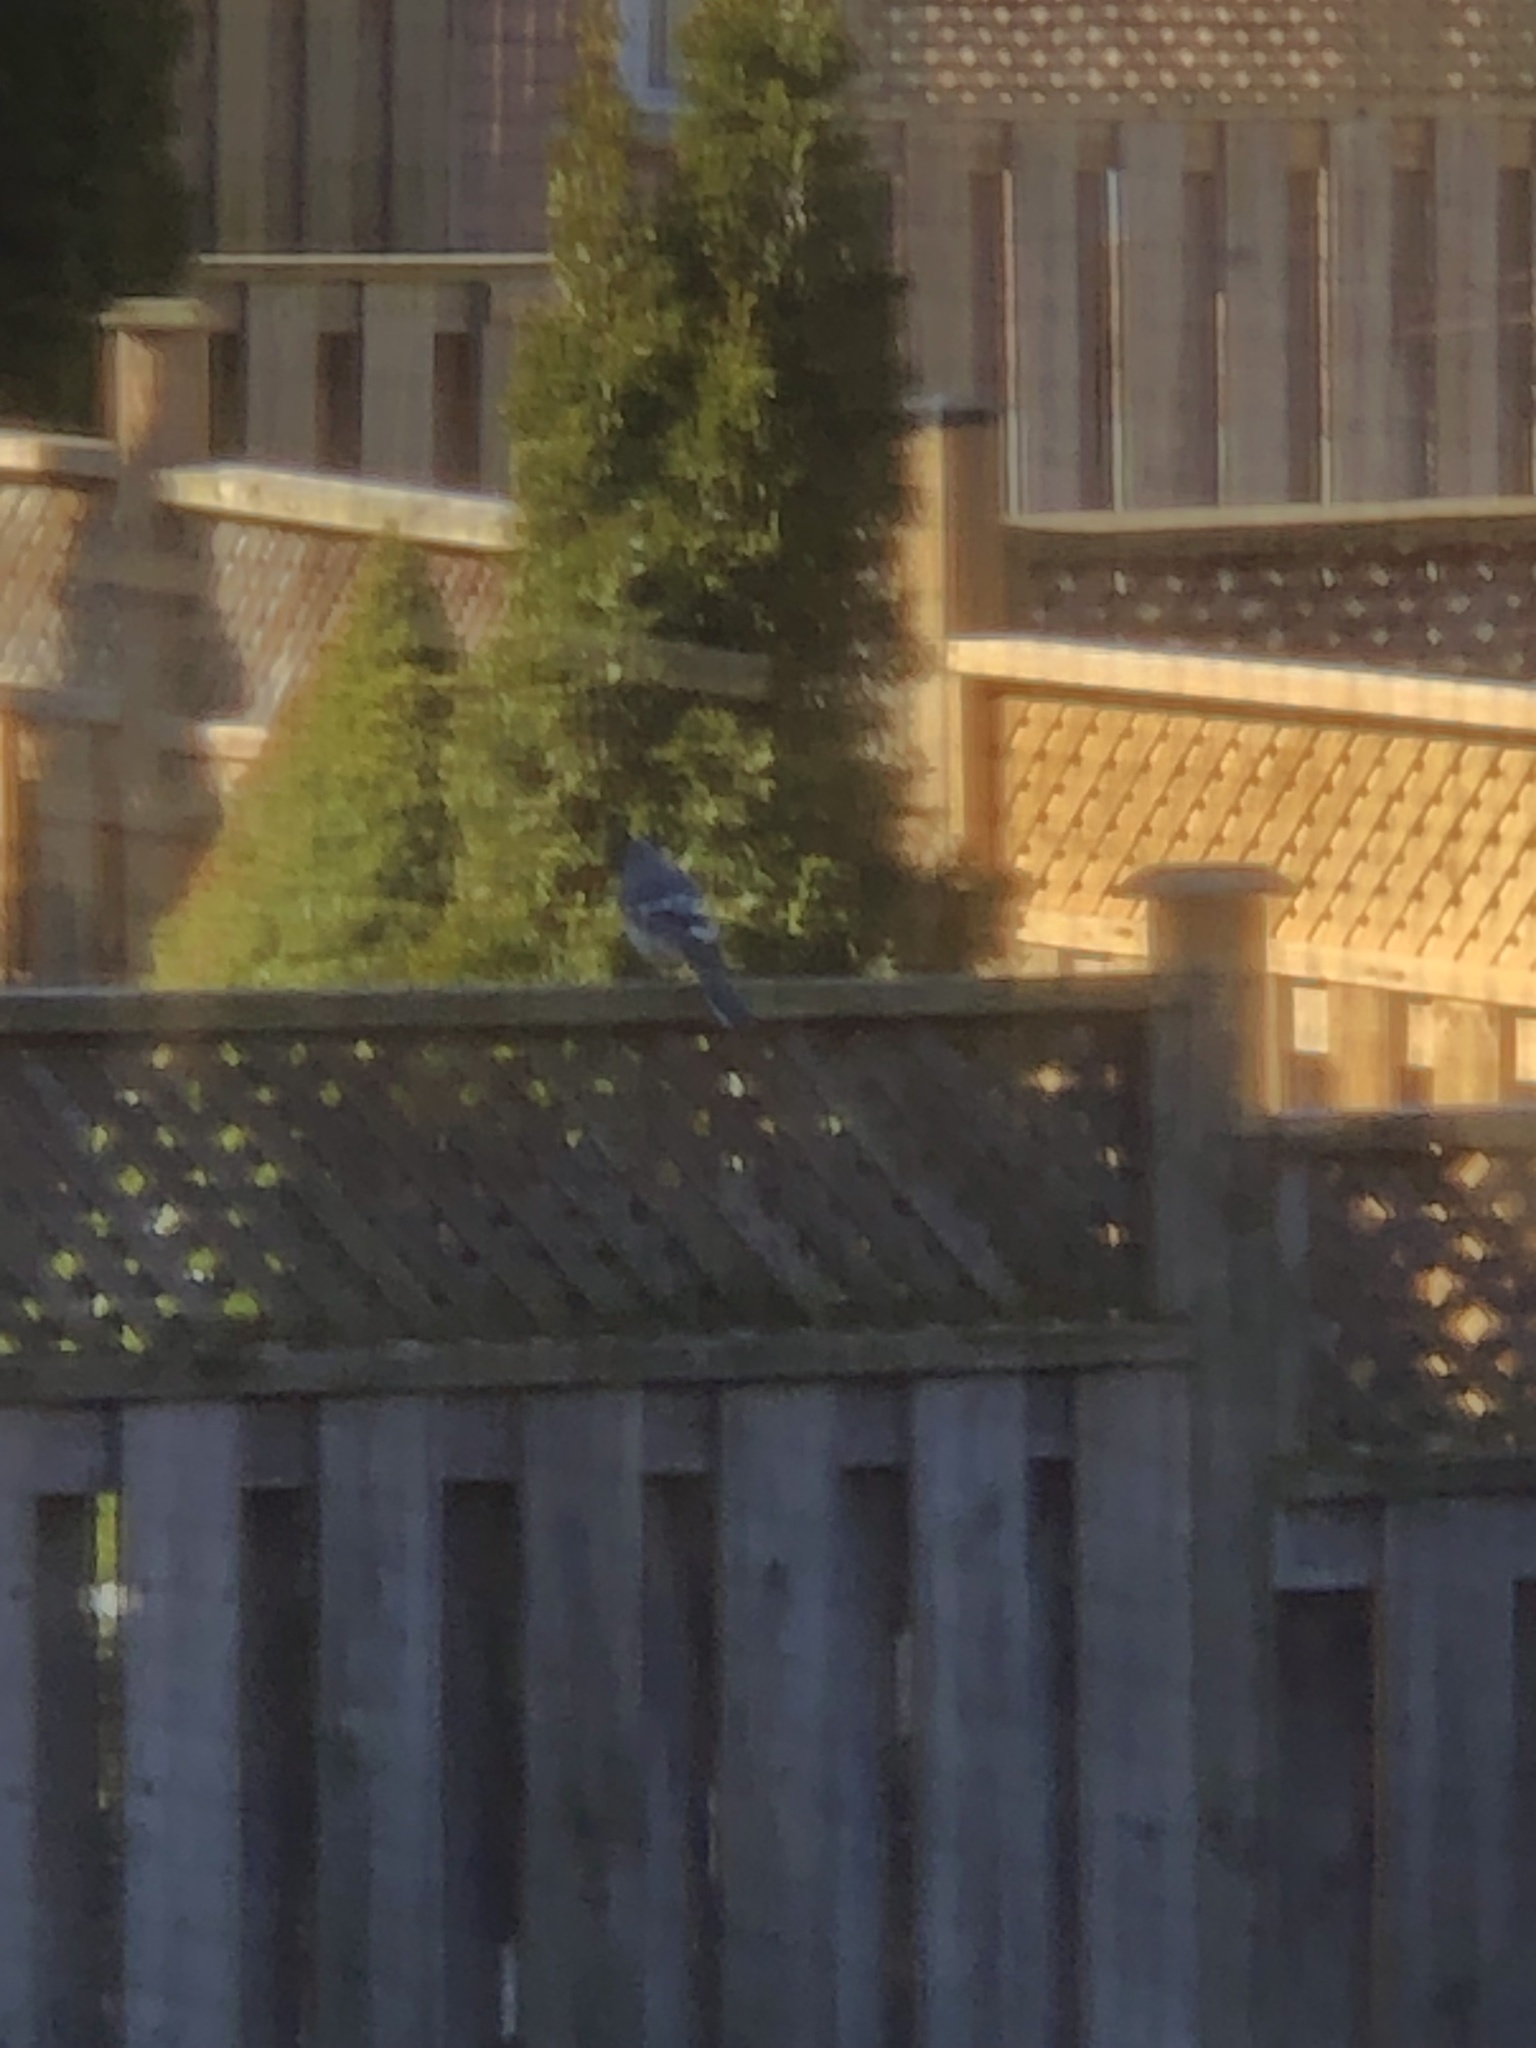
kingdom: Animalia
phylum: Chordata
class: Aves
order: Passeriformes
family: Corvidae
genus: Cyanocitta
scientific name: Cyanocitta cristata
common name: Blue jay
